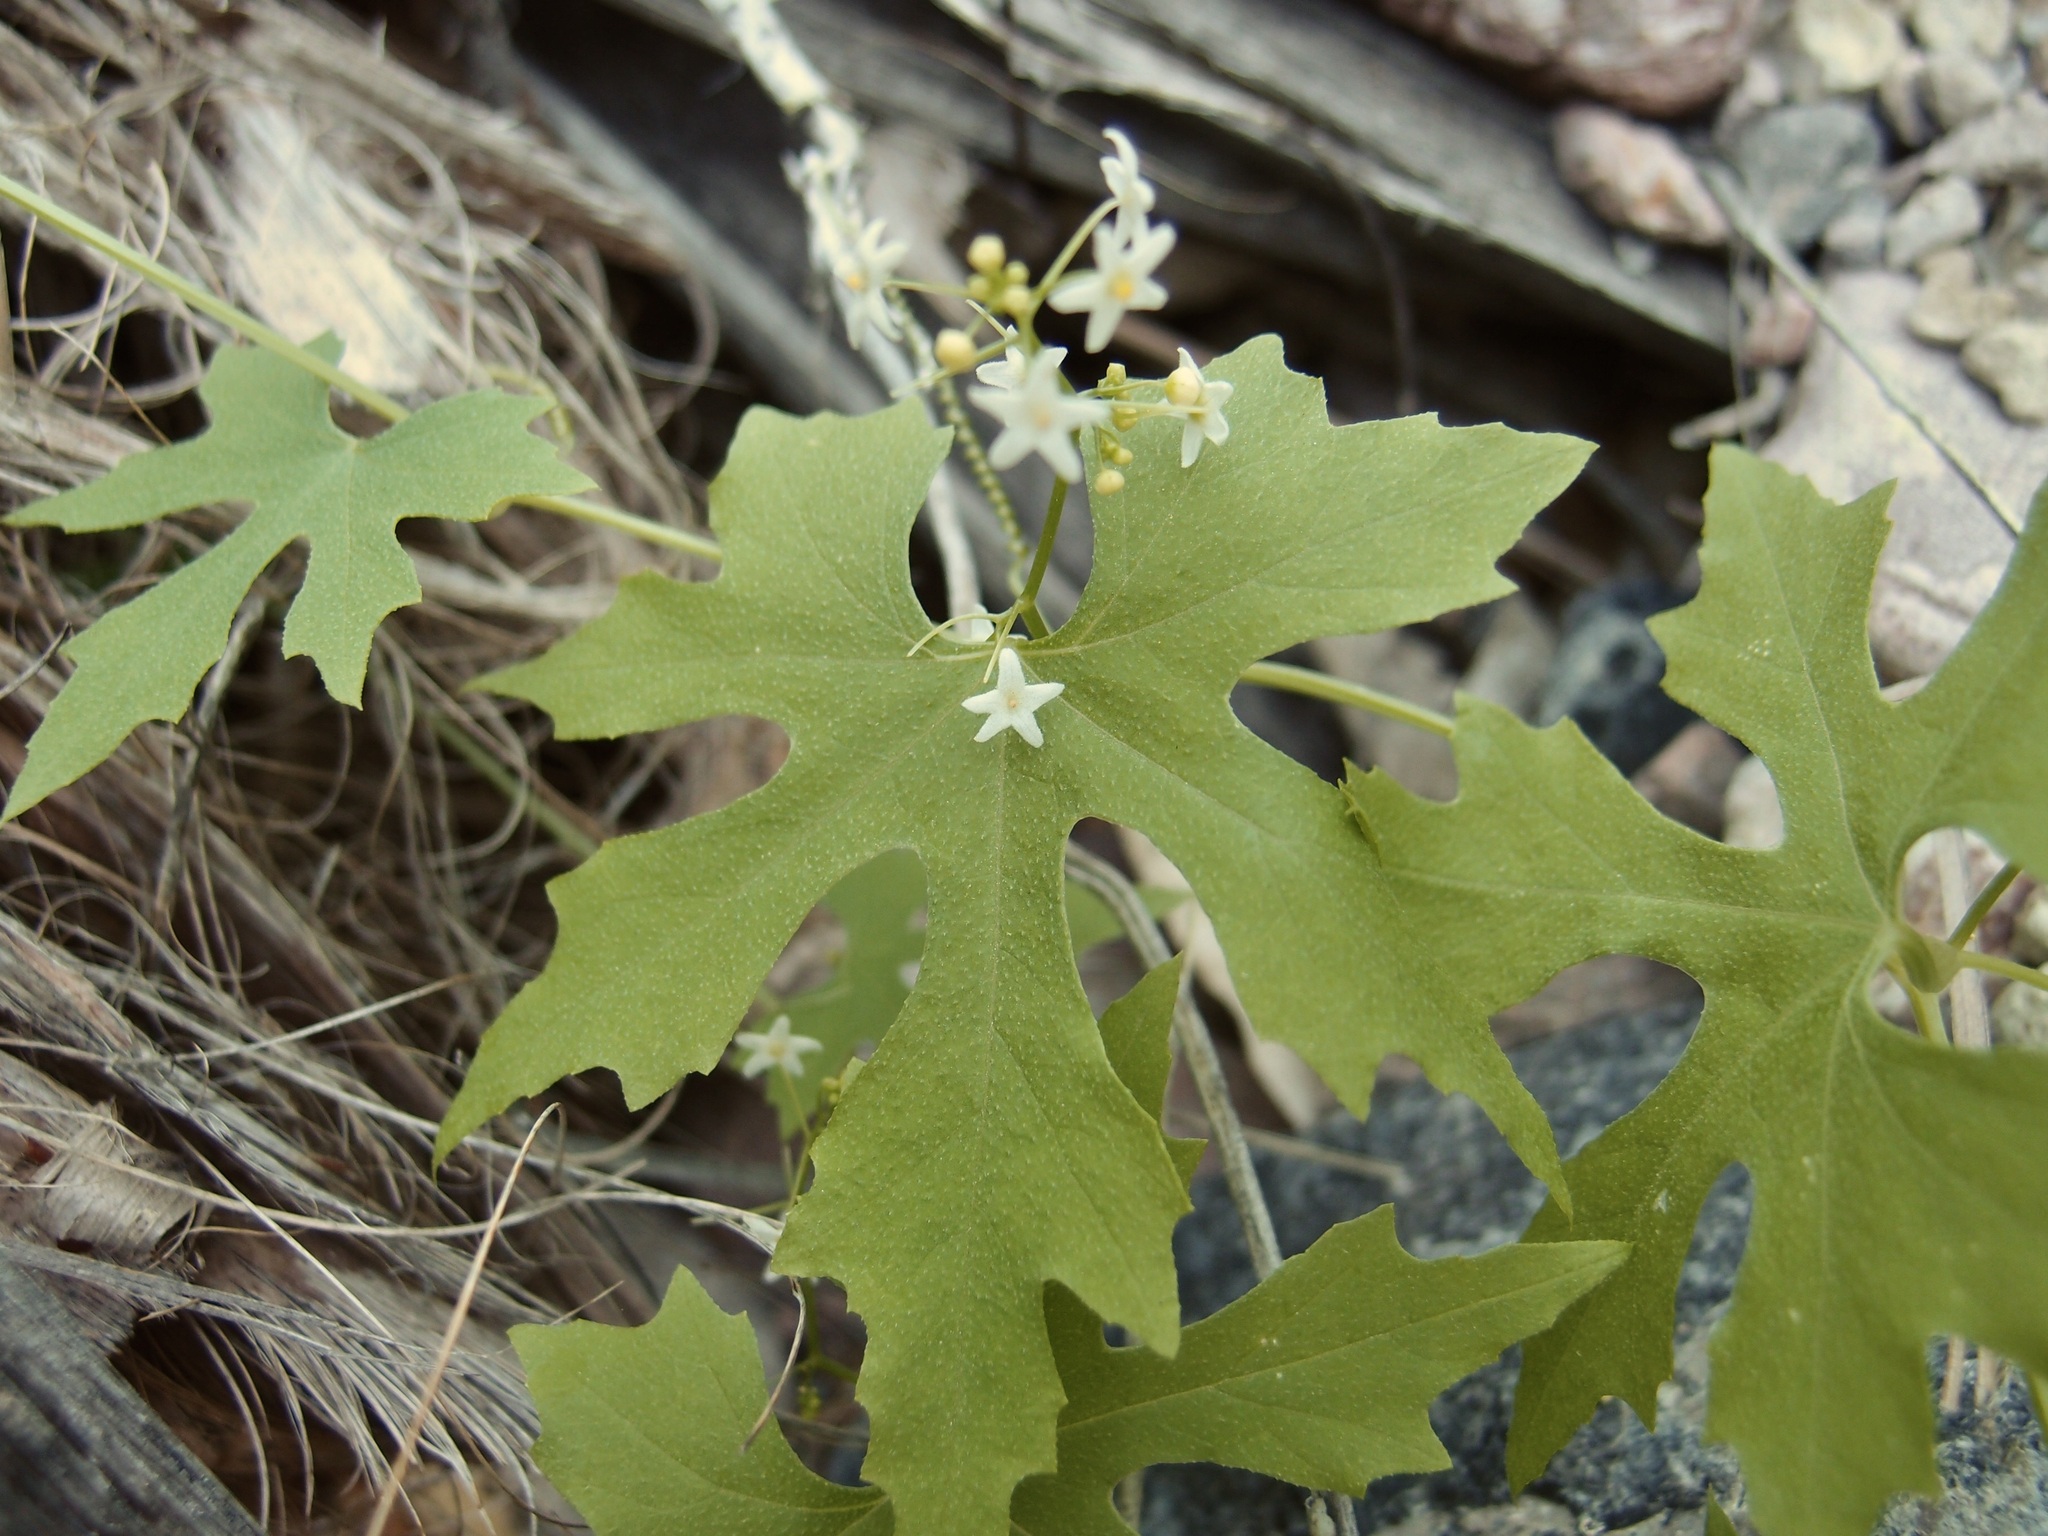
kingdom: Plantae
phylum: Tracheophyta
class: Magnoliopsida
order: Cucurbitales
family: Cucurbitaceae
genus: Echinopepon
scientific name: Echinopepon insularis
